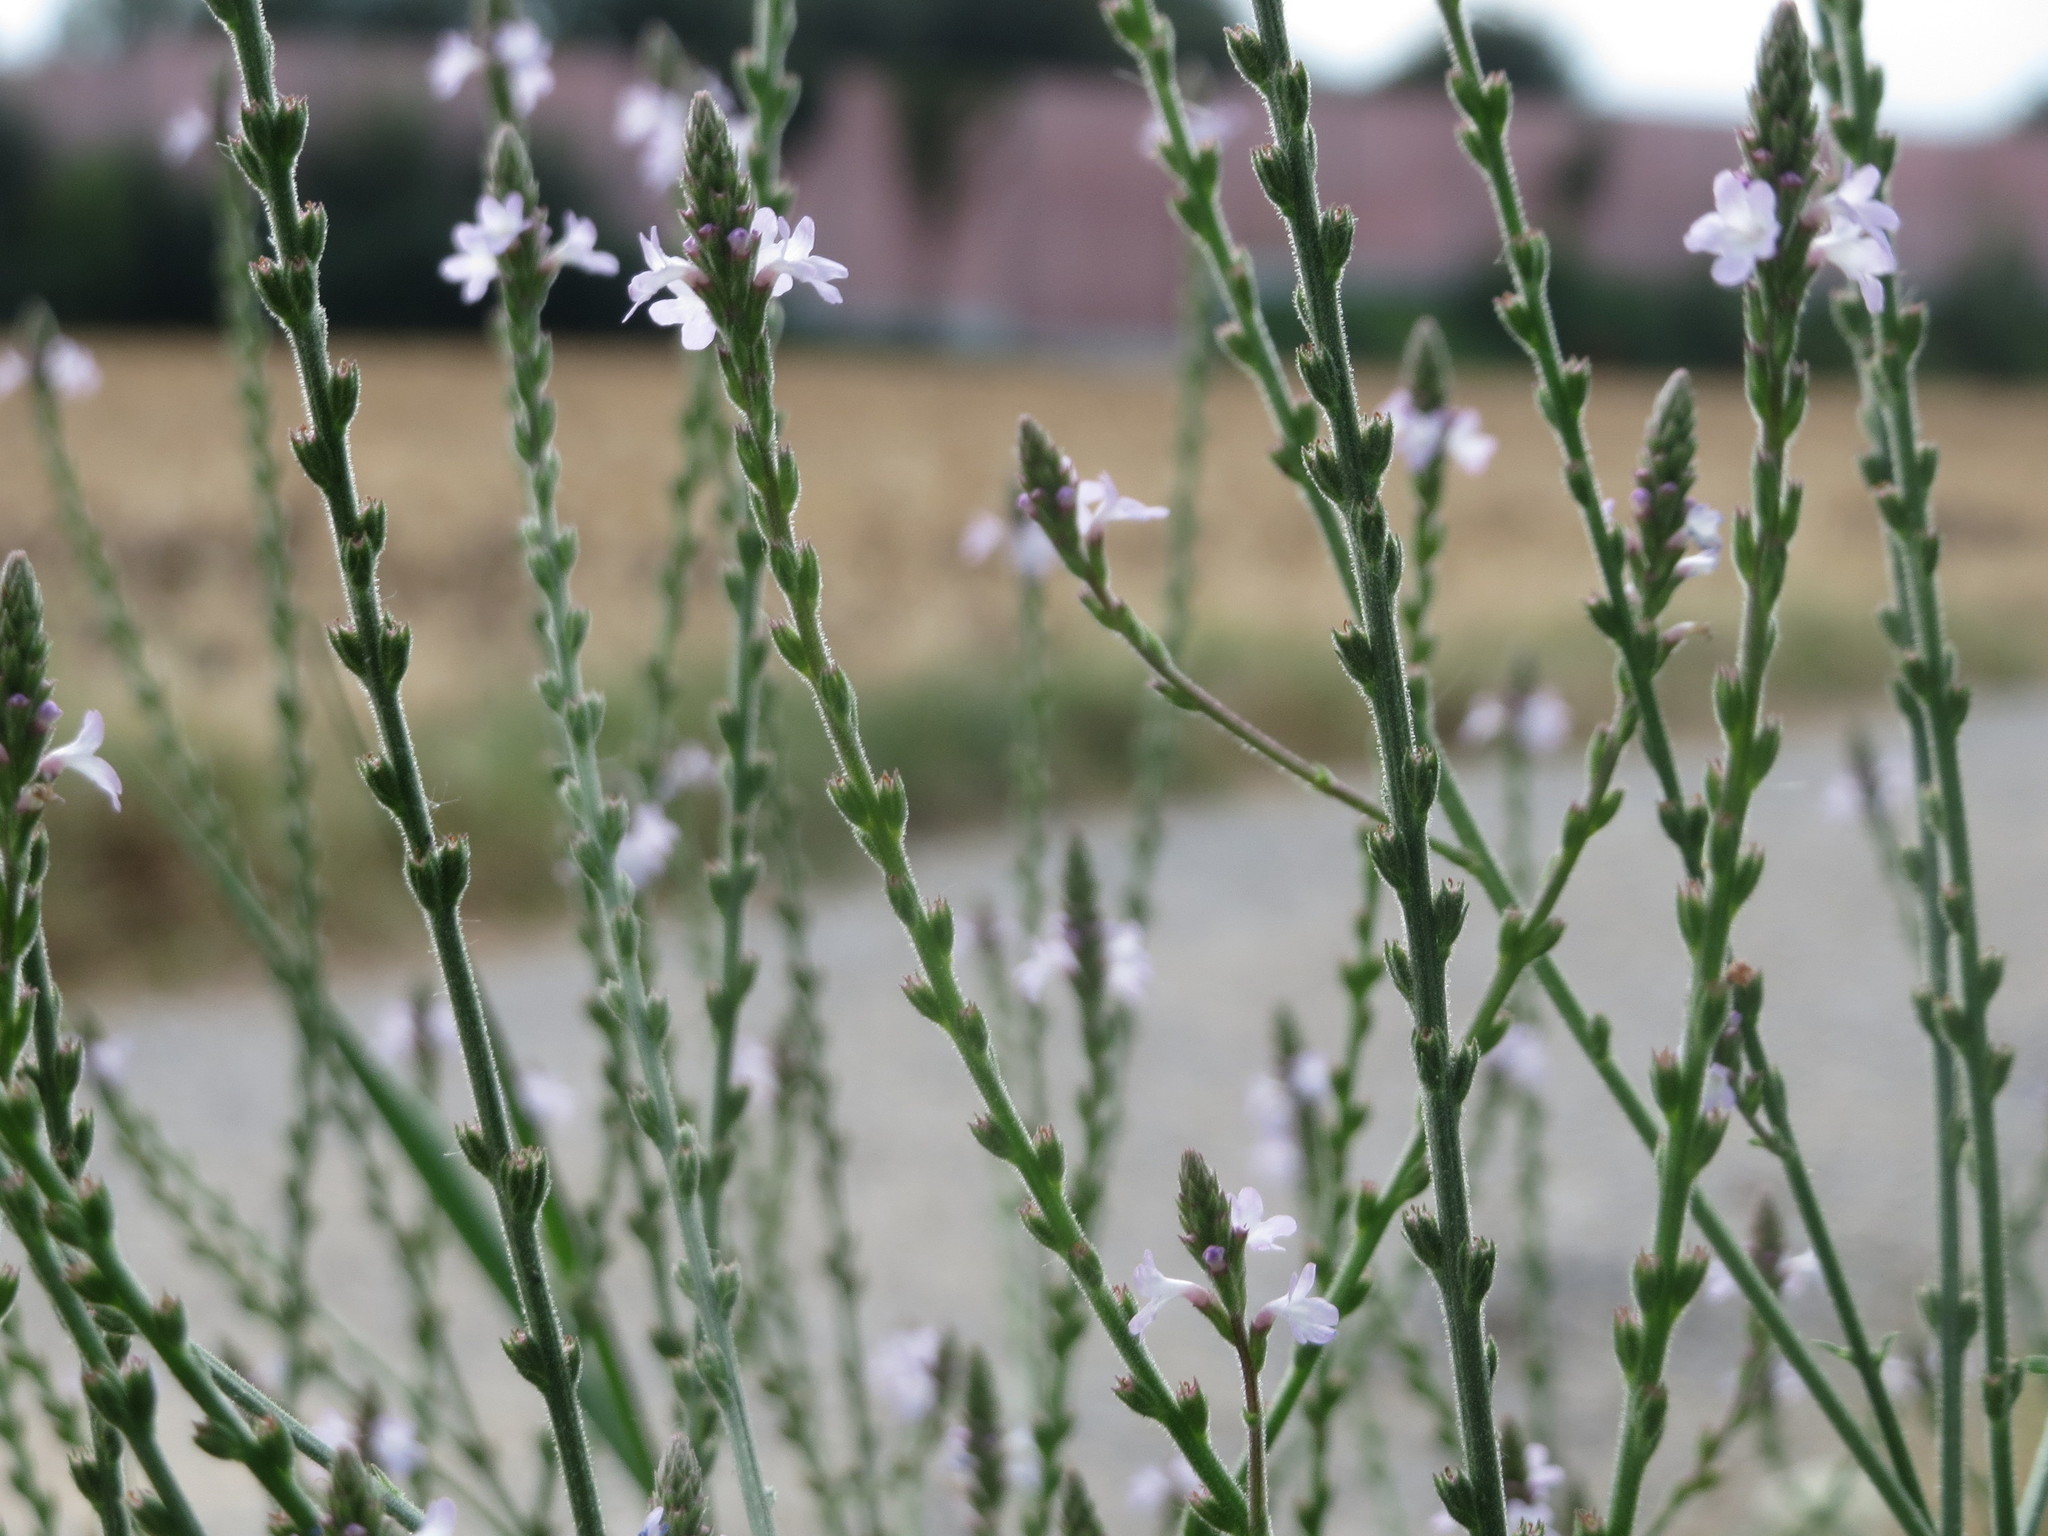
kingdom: Plantae
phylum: Tracheophyta
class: Magnoliopsida
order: Lamiales
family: Verbenaceae
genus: Verbena
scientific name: Verbena officinalis
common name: Vervain
